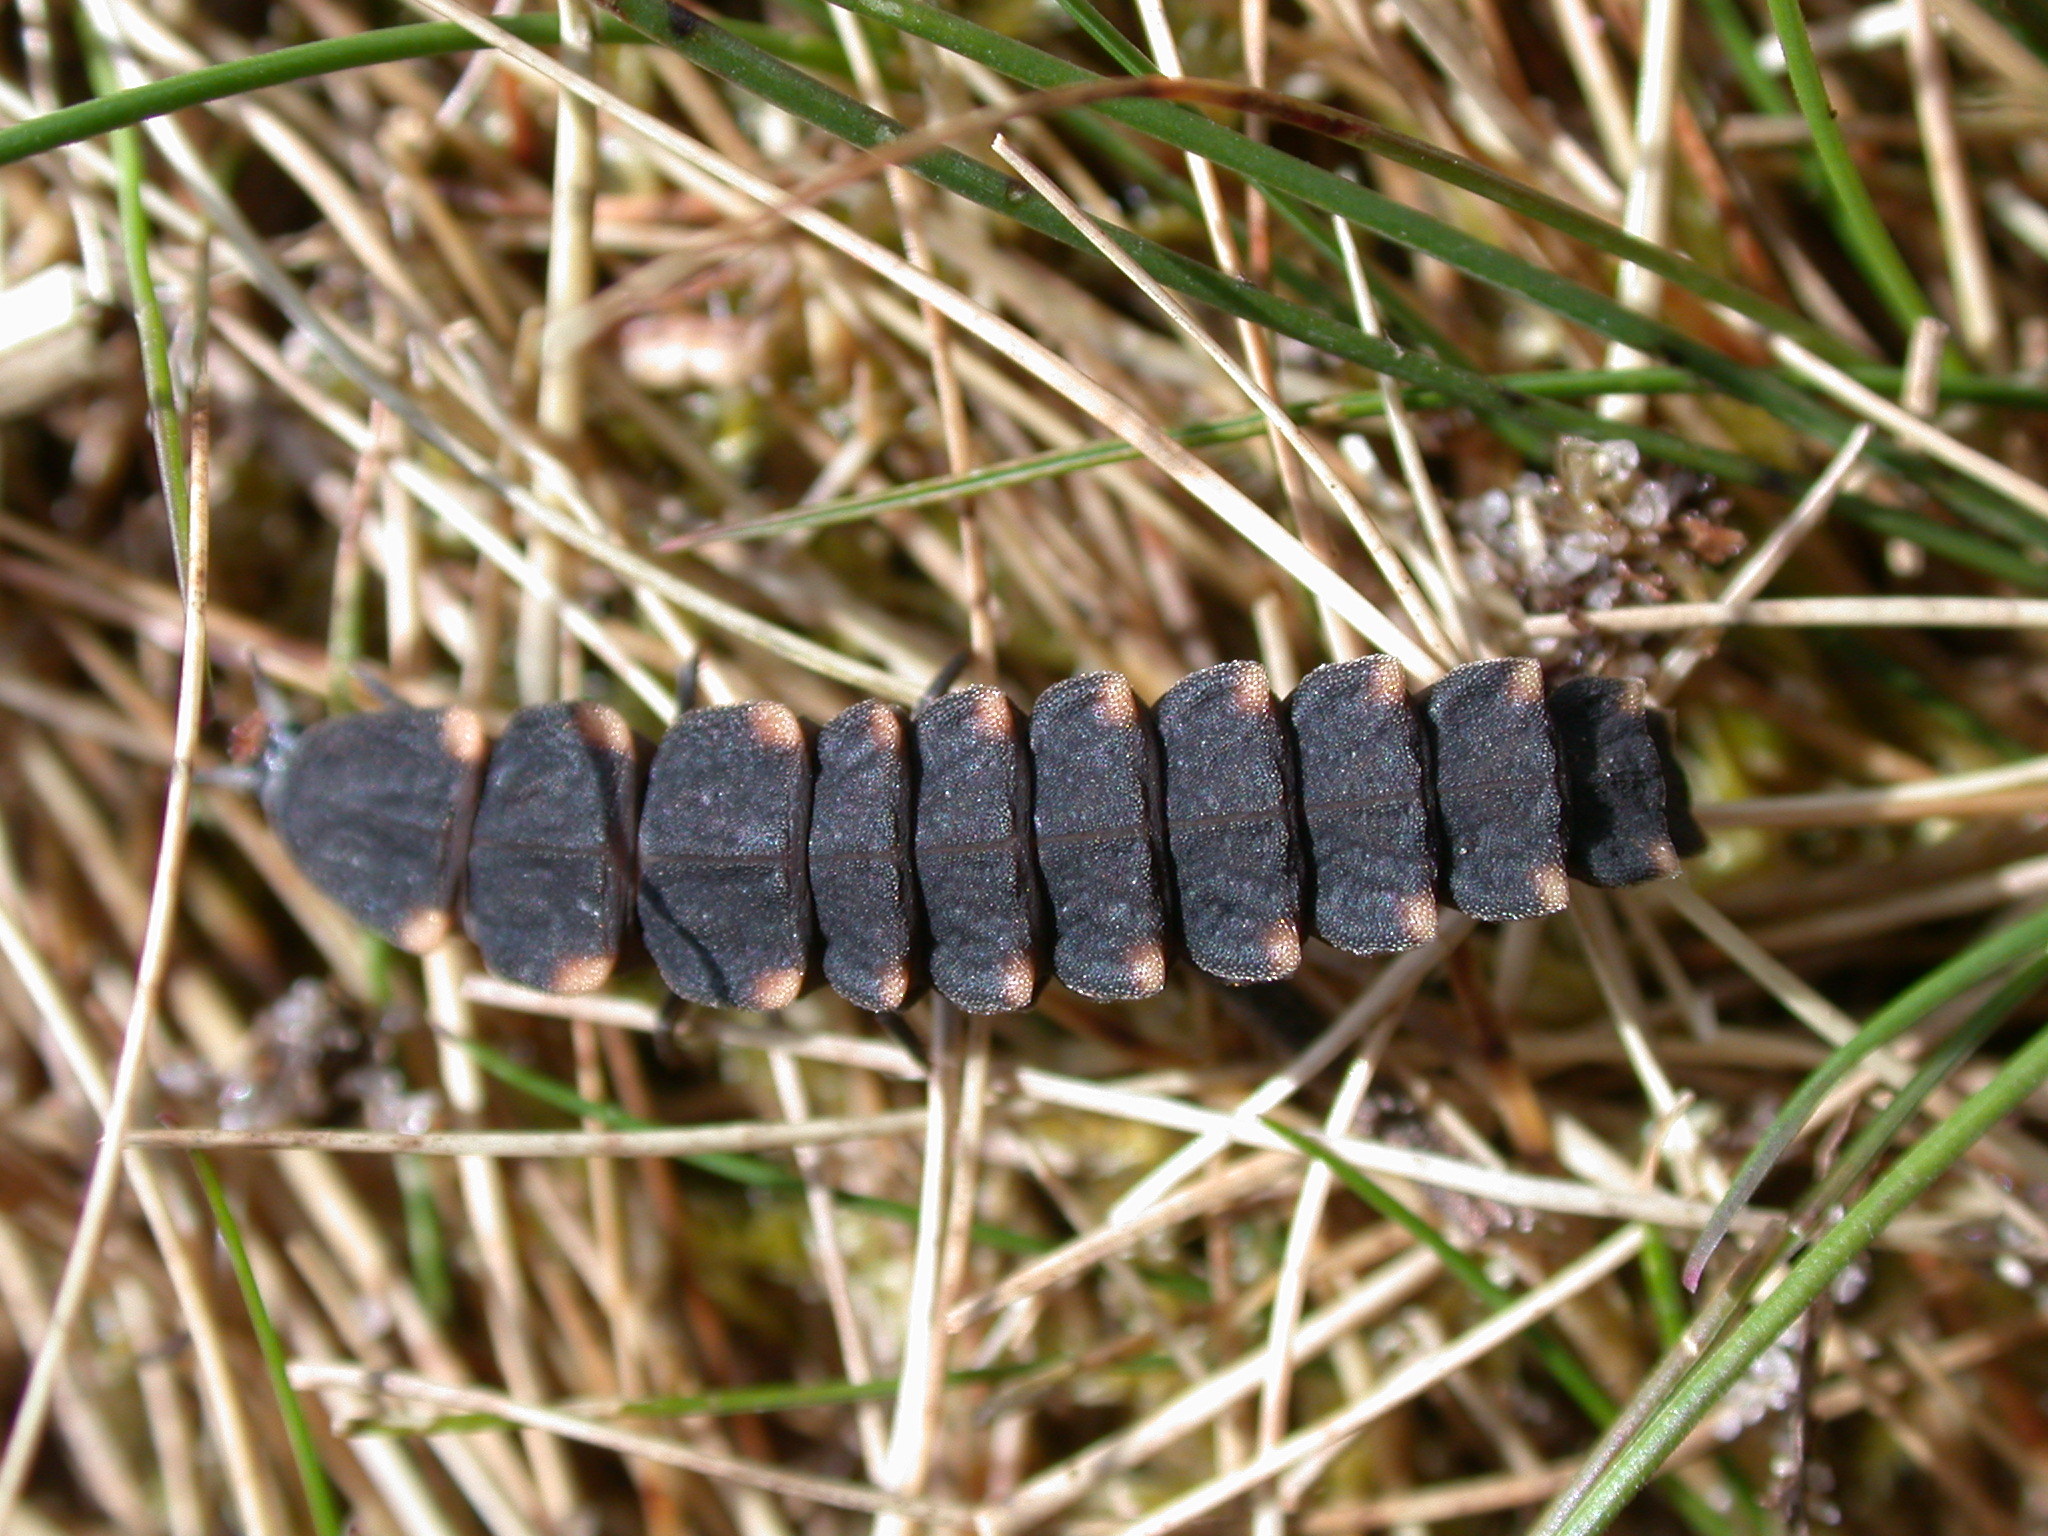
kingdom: Animalia
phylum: Arthropoda
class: Insecta
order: Coleoptera
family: Lampyridae
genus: Lampyris
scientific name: Lampyris noctiluca
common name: Glow-worm
